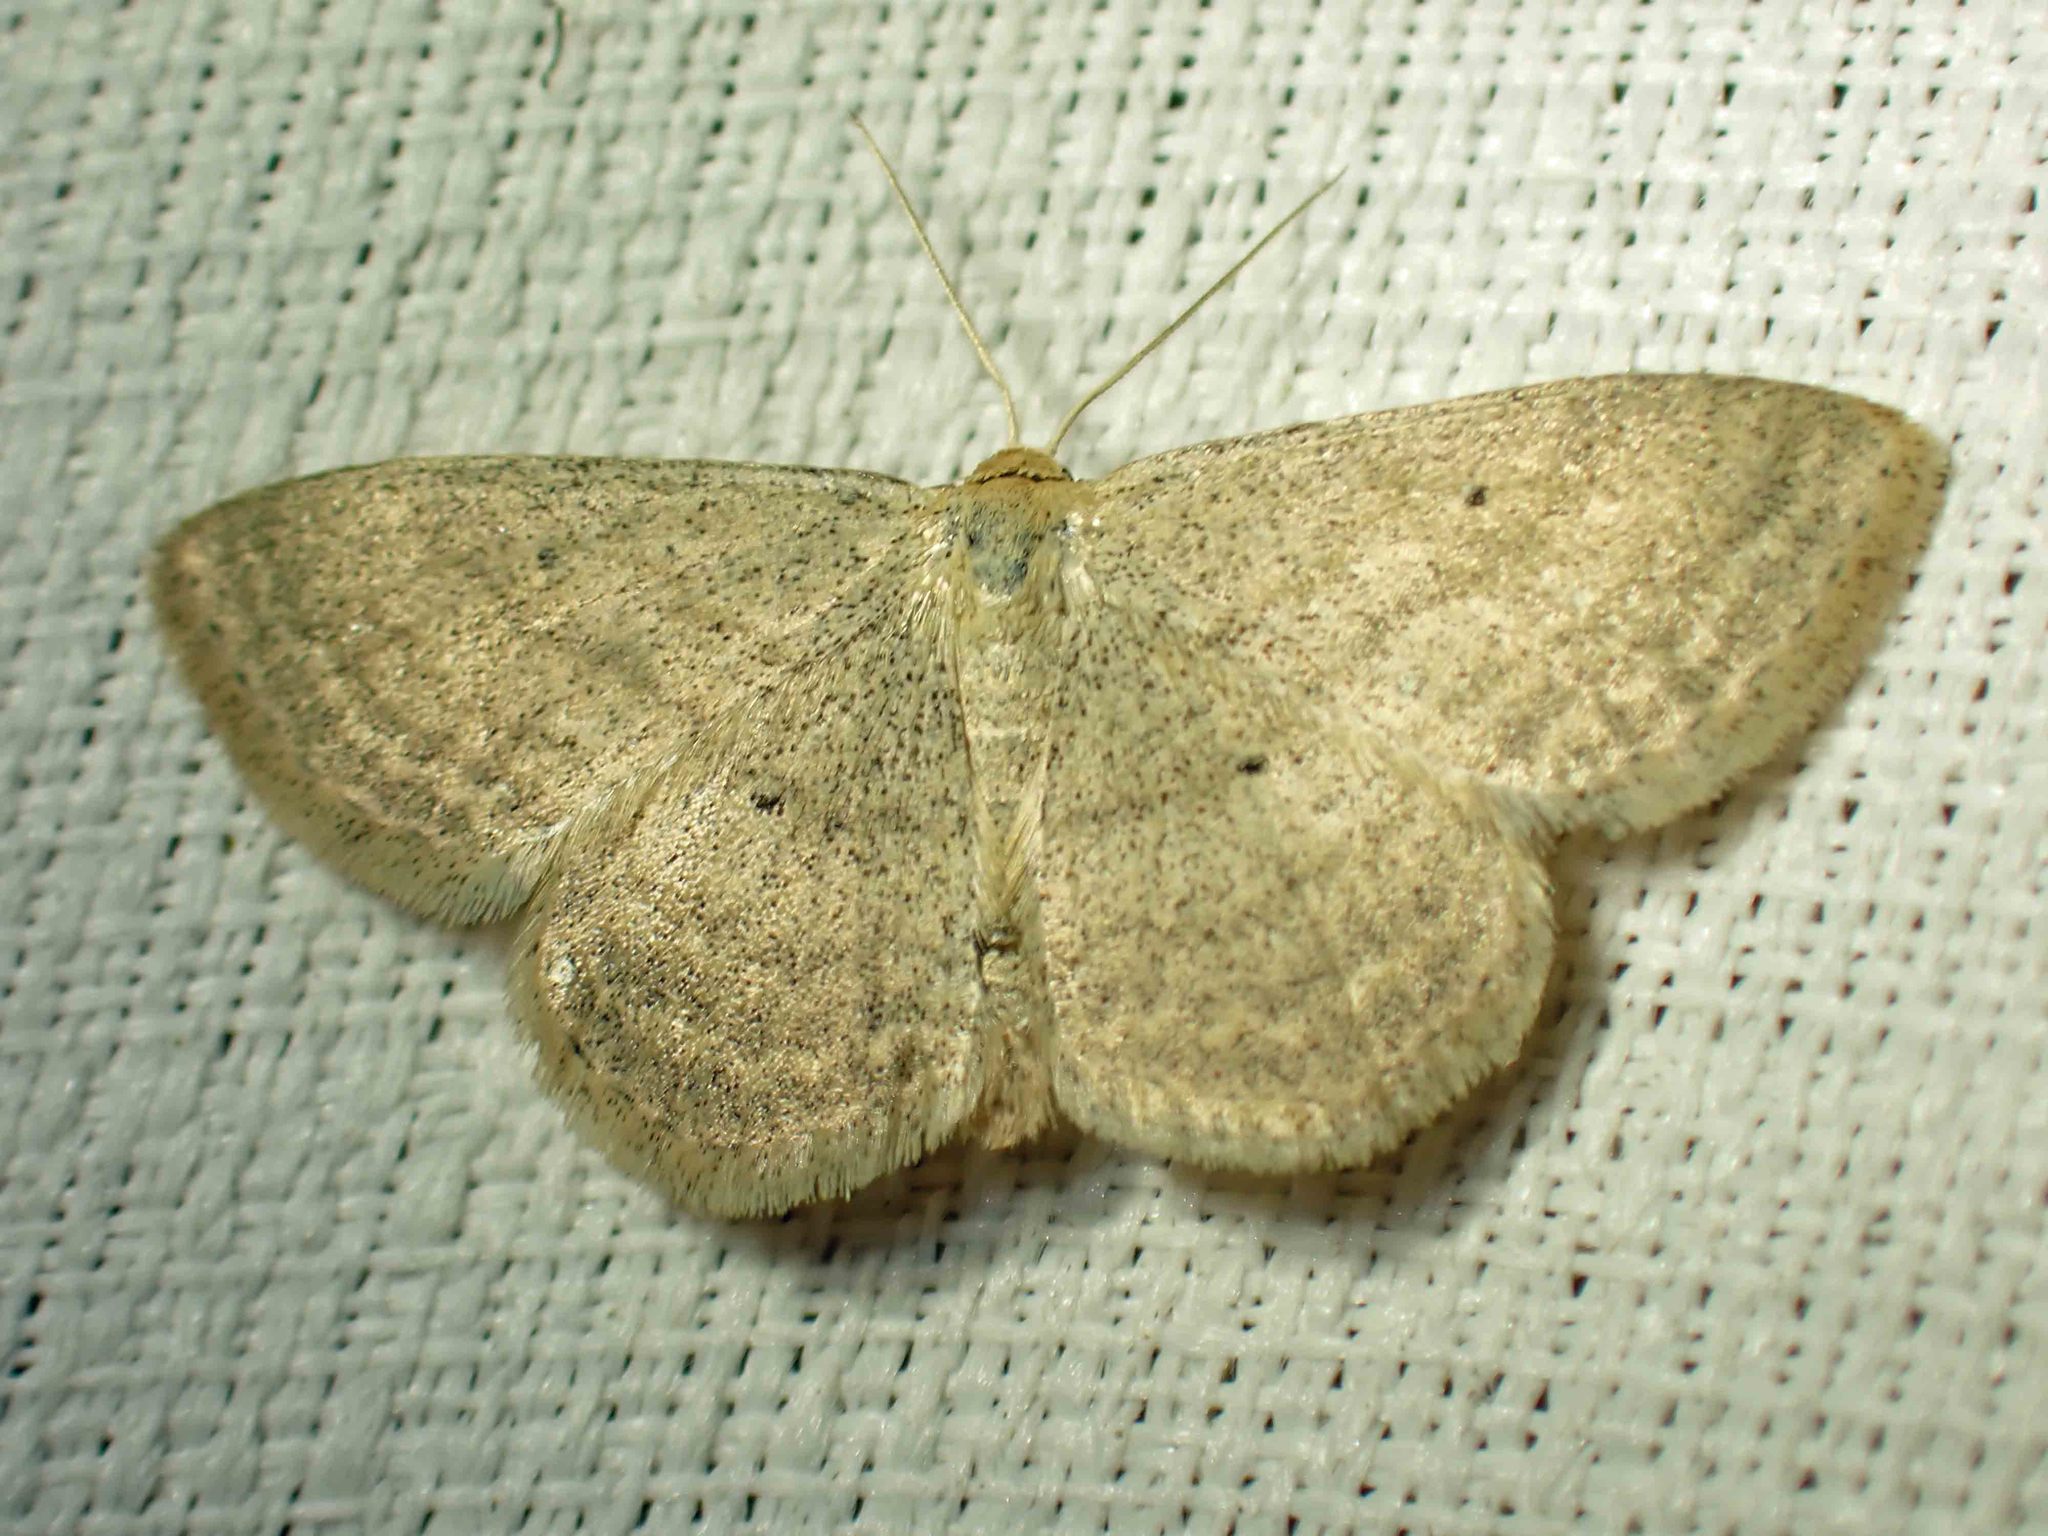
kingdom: Animalia
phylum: Arthropoda
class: Insecta
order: Lepidoptera
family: Geometridae
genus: Scopula
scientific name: Scopula inductata
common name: Soft-lined wave
